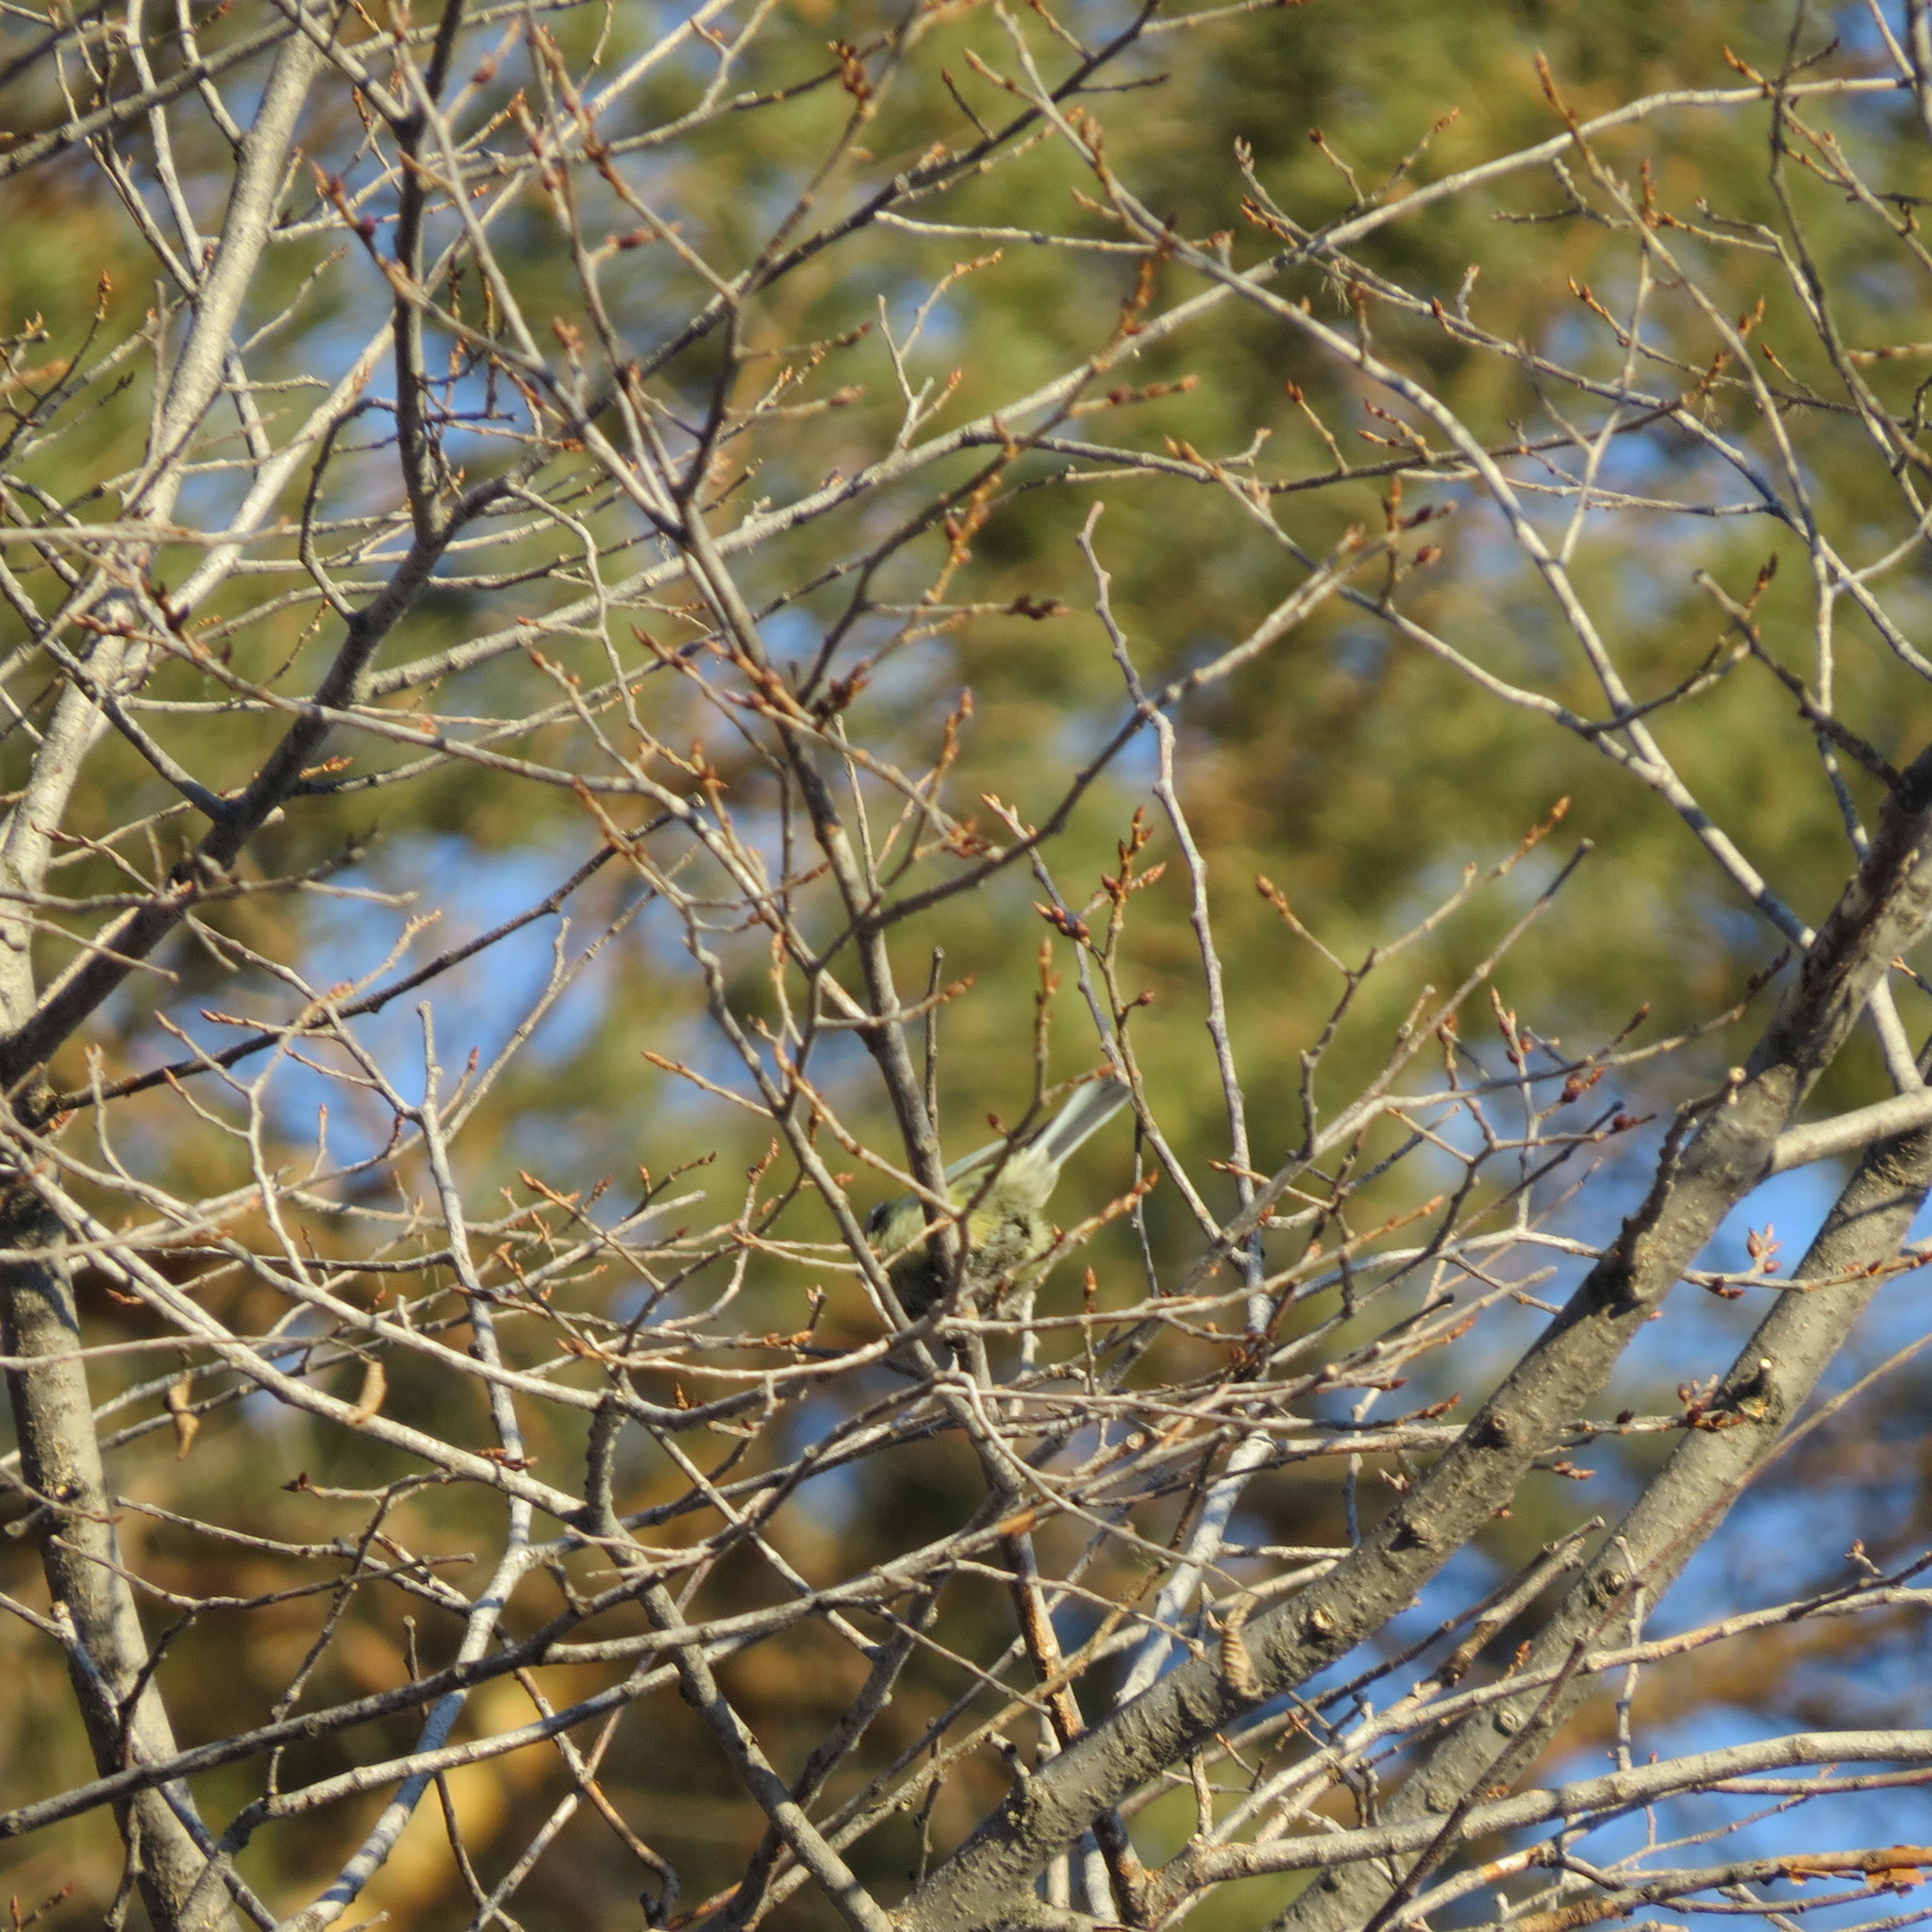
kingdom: Animalia
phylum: Chordata
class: Aves
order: Passeriformes
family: Paridae
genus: Cyanistes
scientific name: Cyanistes caeruleus
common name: Eurasian blue tit
